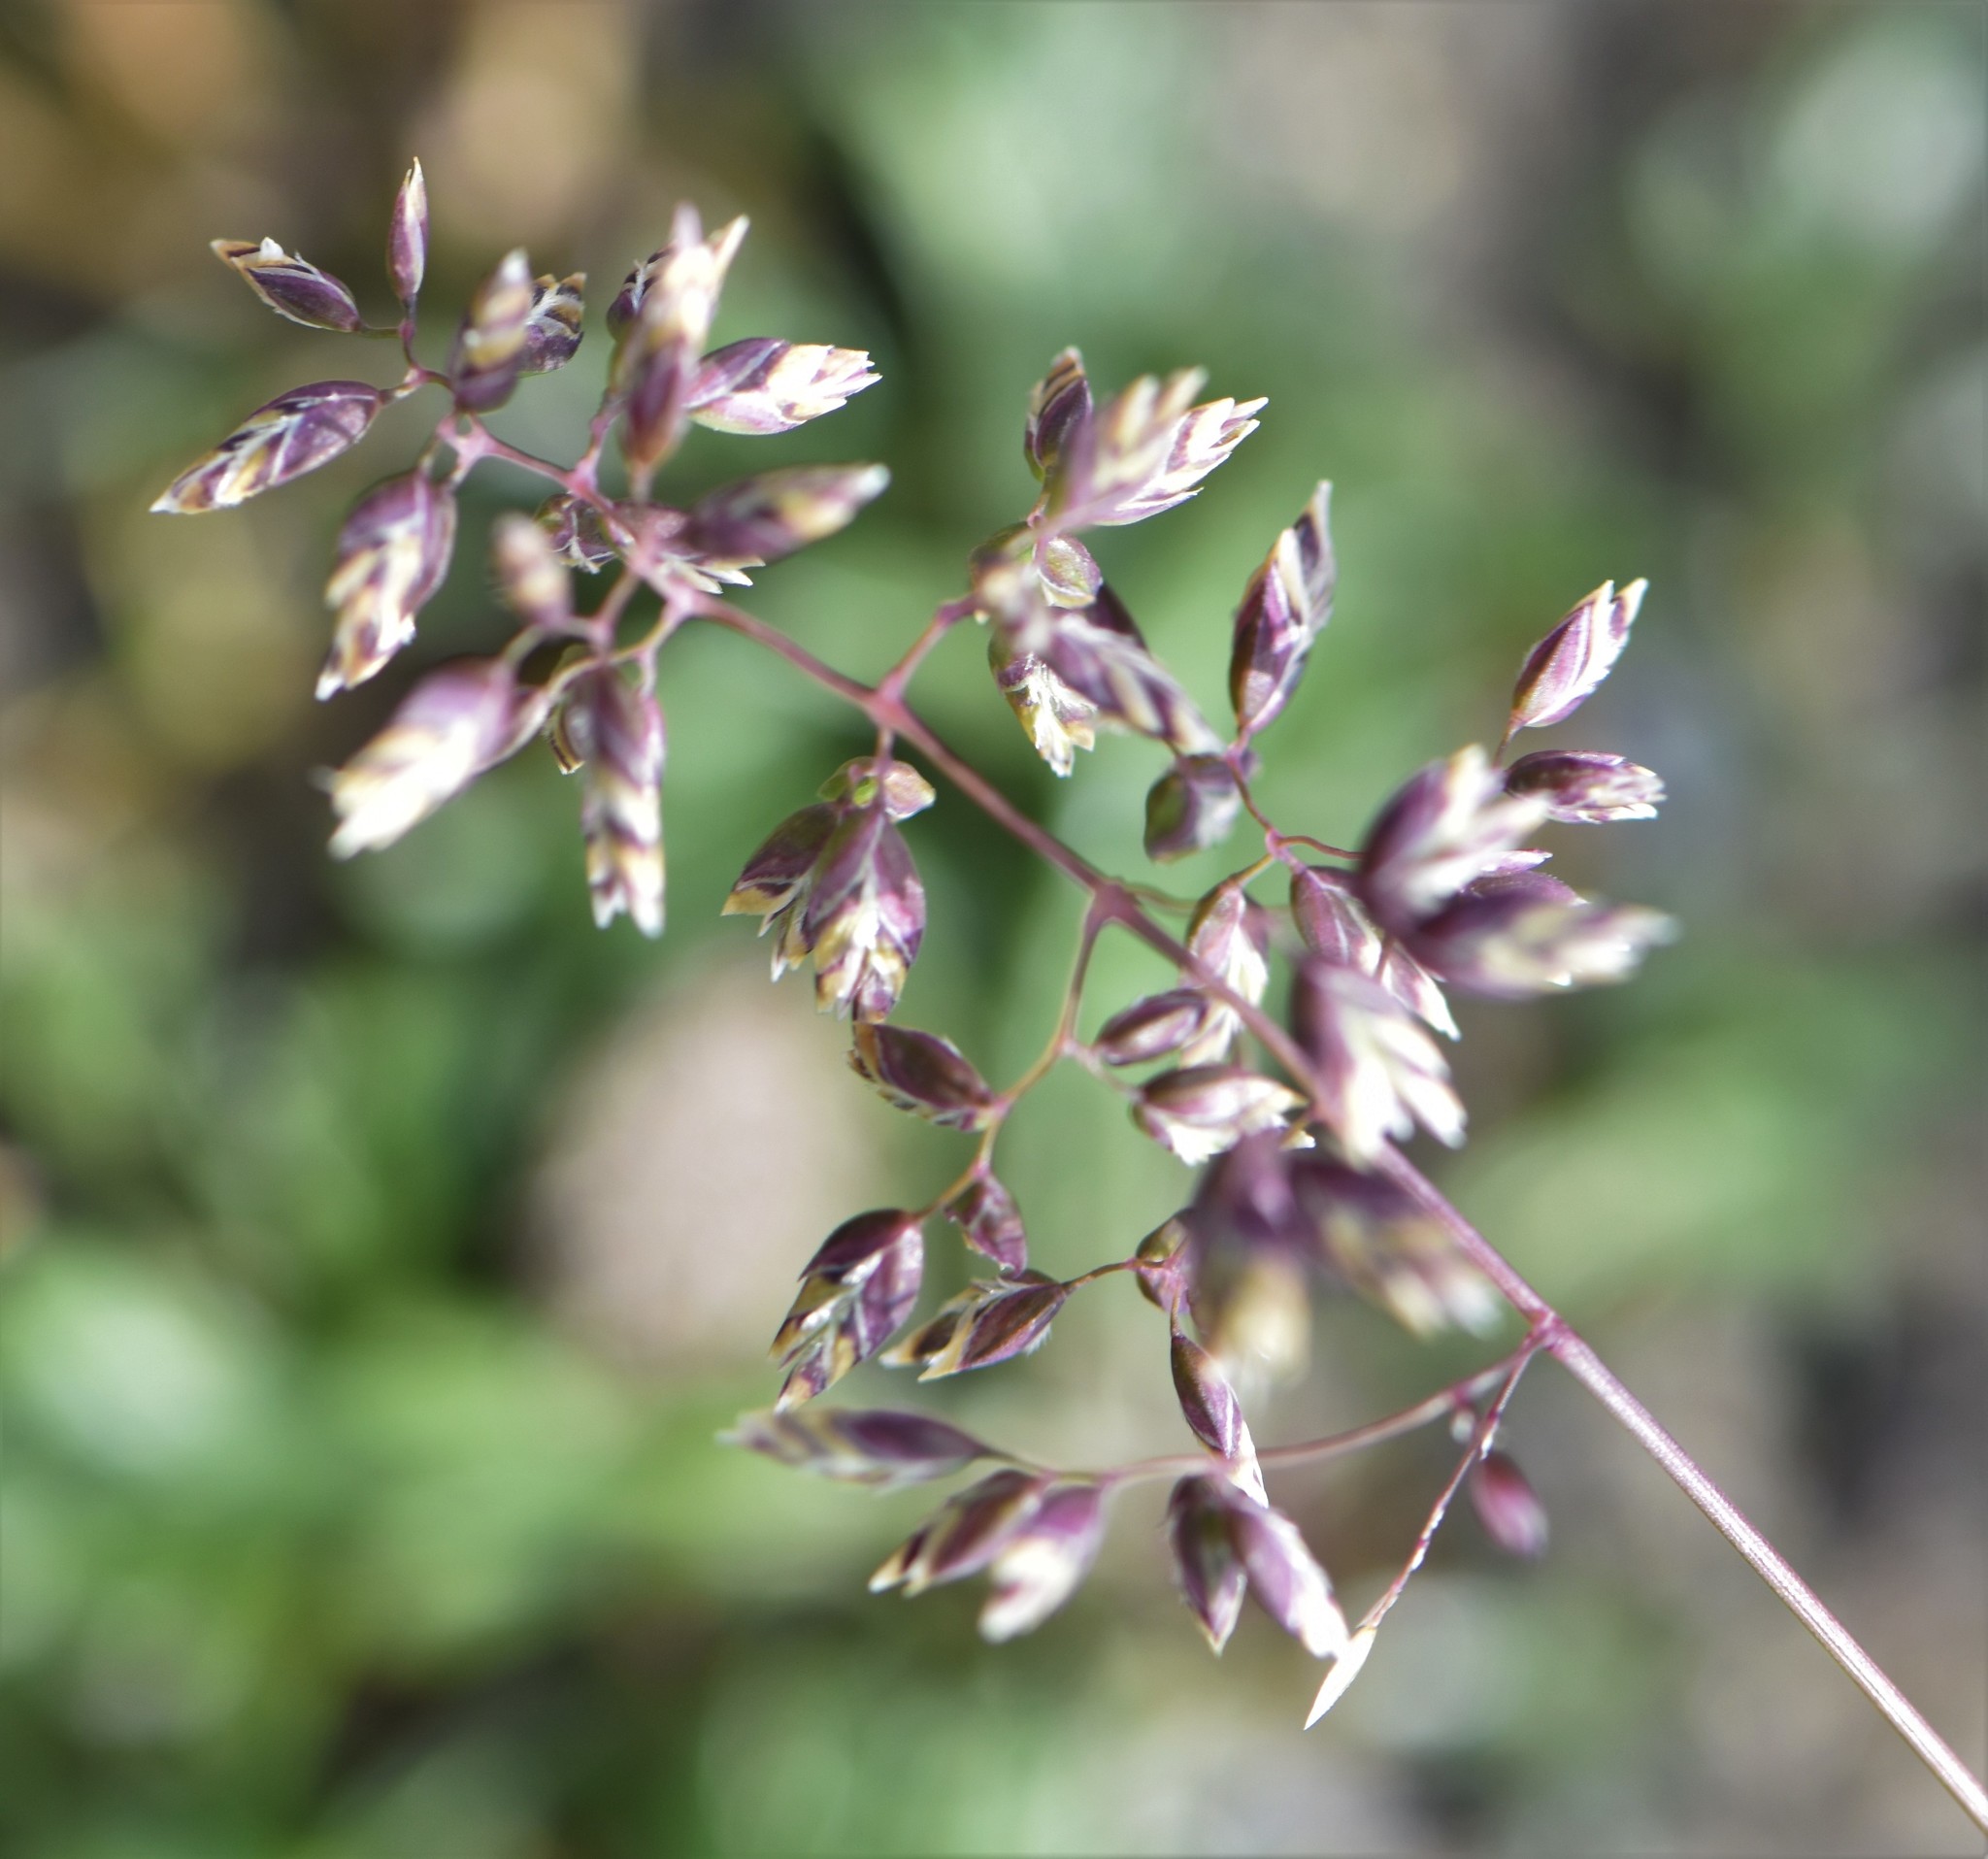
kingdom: Plantae
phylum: Tracheophyta
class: Liliopsida
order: Poales
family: Poaceae
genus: Poa
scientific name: Poa alpina
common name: Alpine bluegrass
